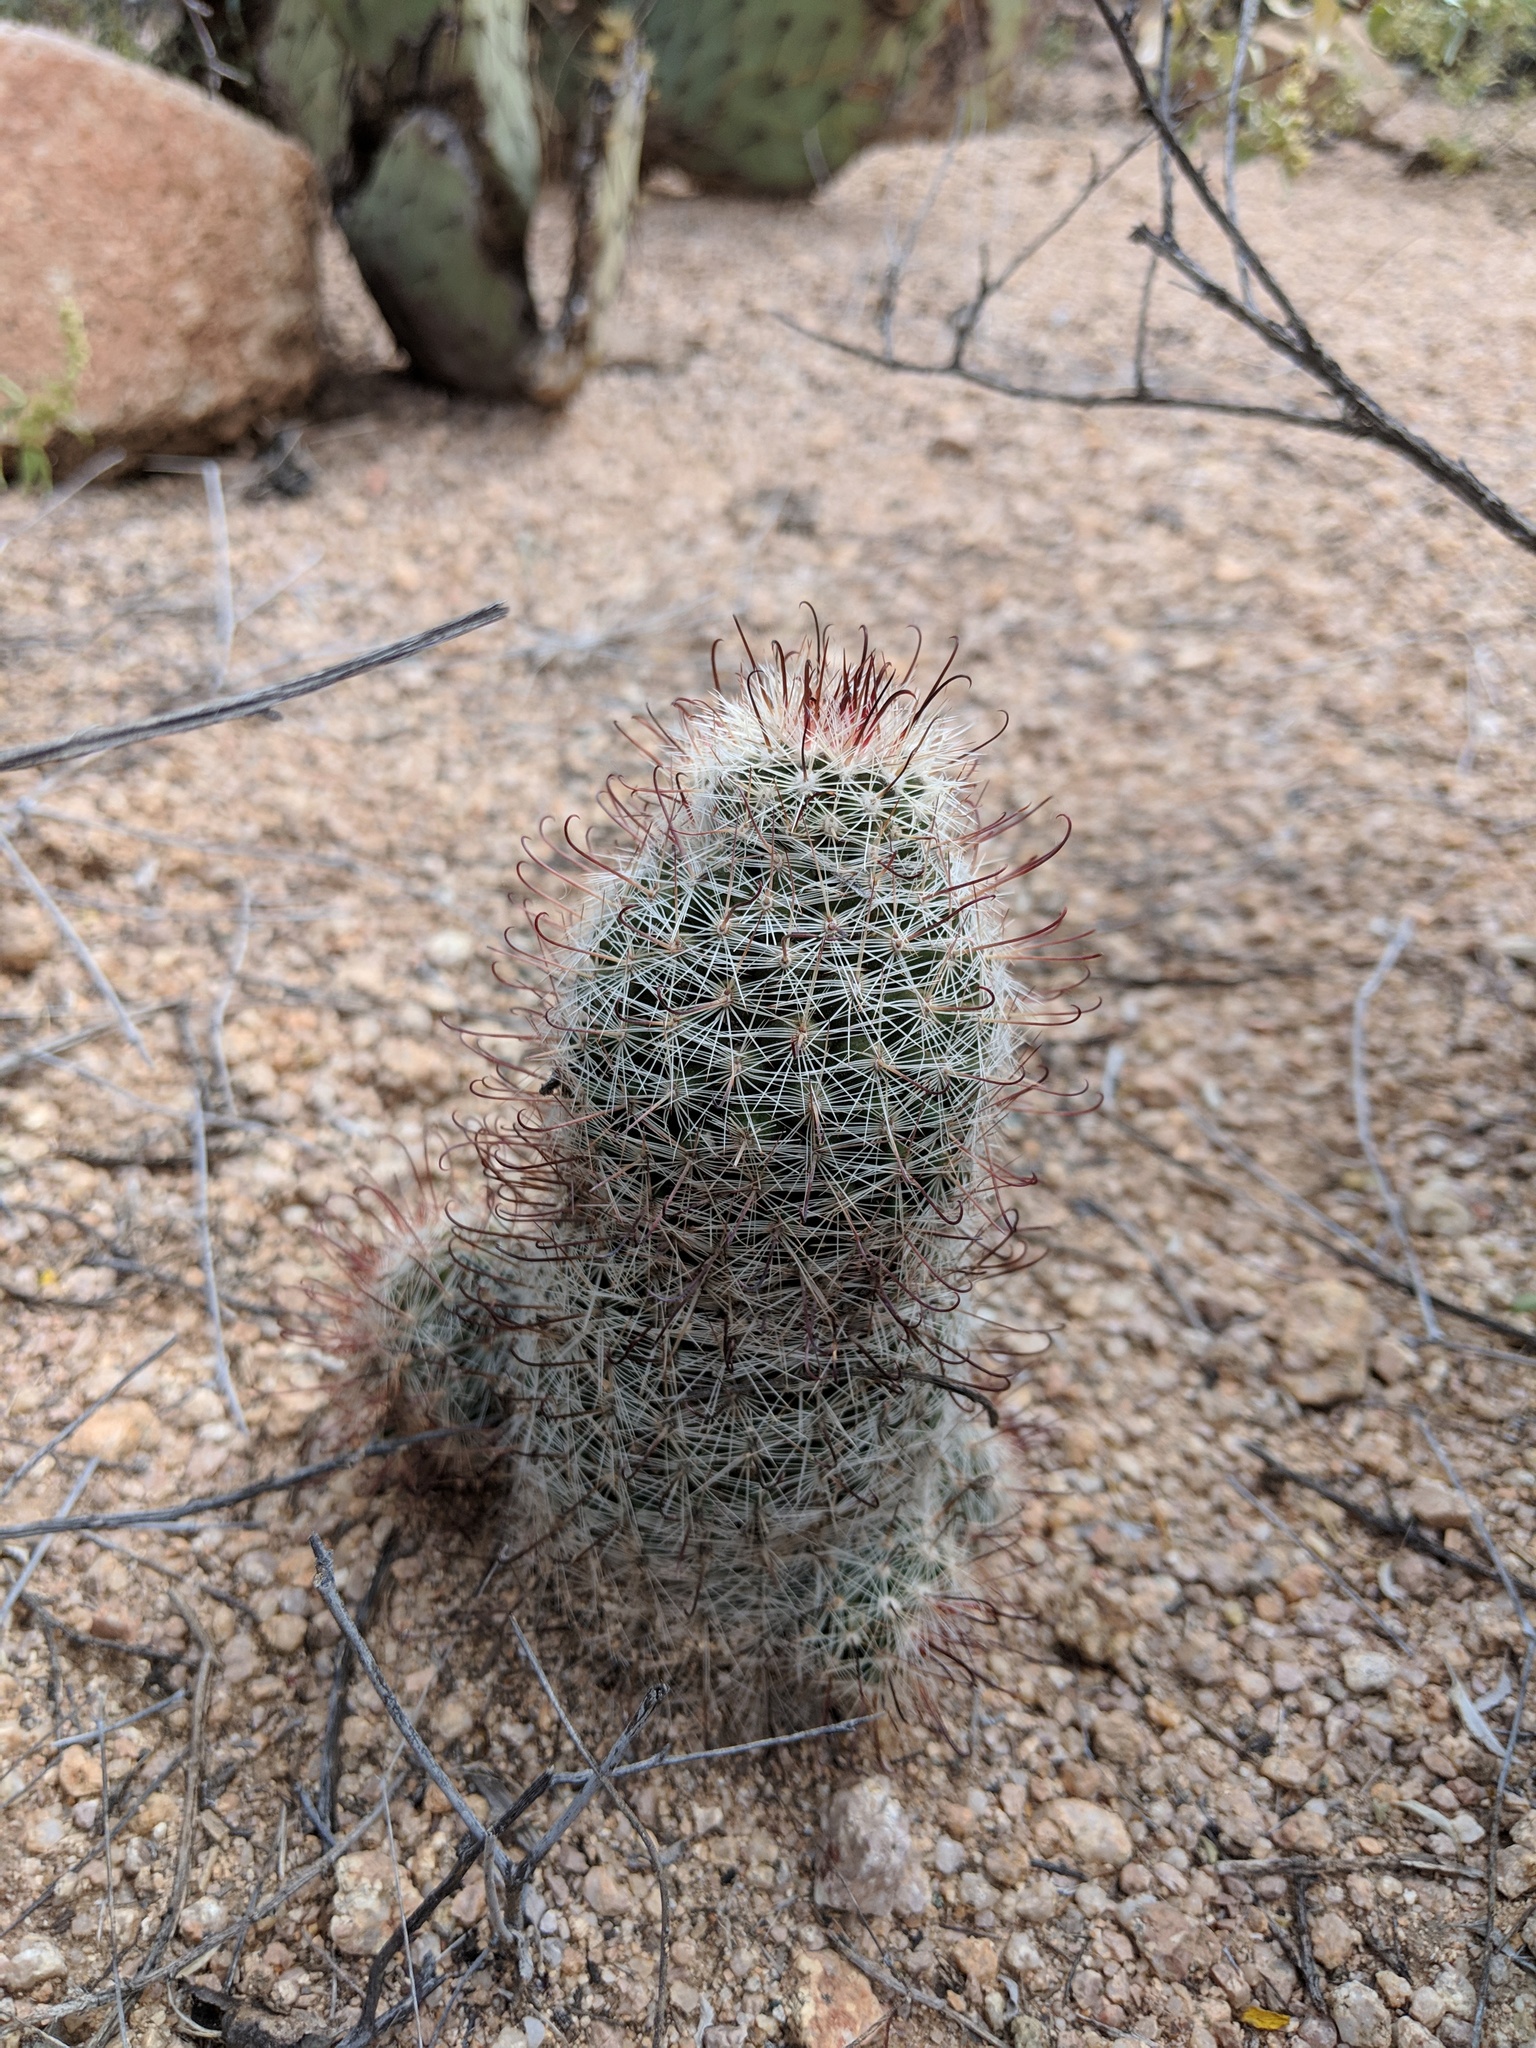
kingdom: Plantae
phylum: Tracheophyta
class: Magnoliopsida
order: Caryophyllales
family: Cactaceae
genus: Cochemiea
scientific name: Cochemiea grahamii
